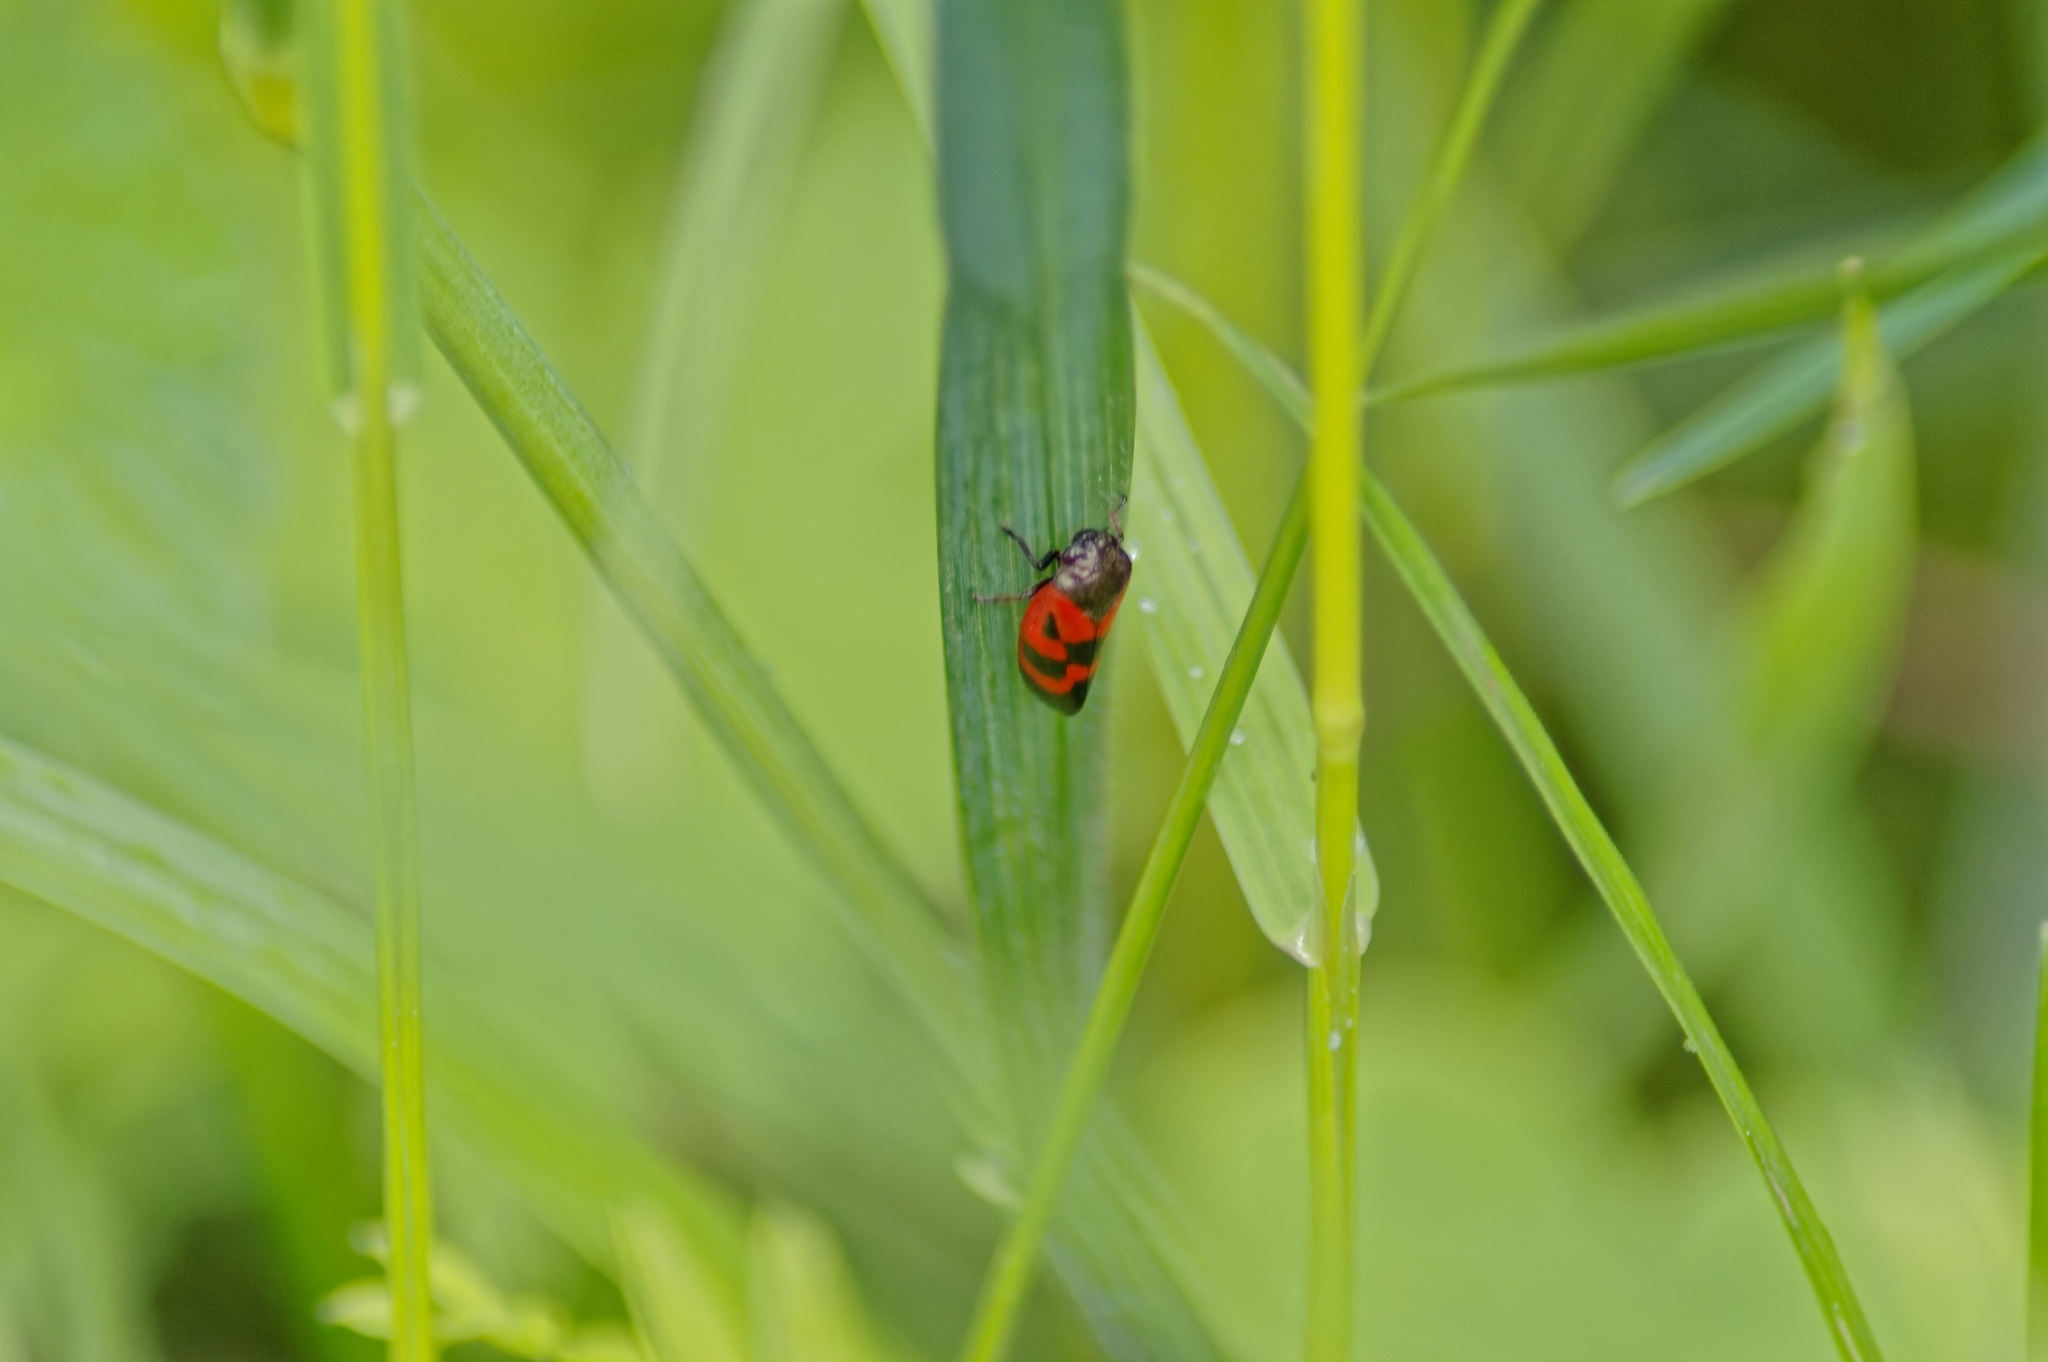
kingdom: Animalia
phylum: Arthropoda
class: Insecta
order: Hemiptera
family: Cercopidae
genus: Haematoloma
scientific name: Haematoloma dorsata
